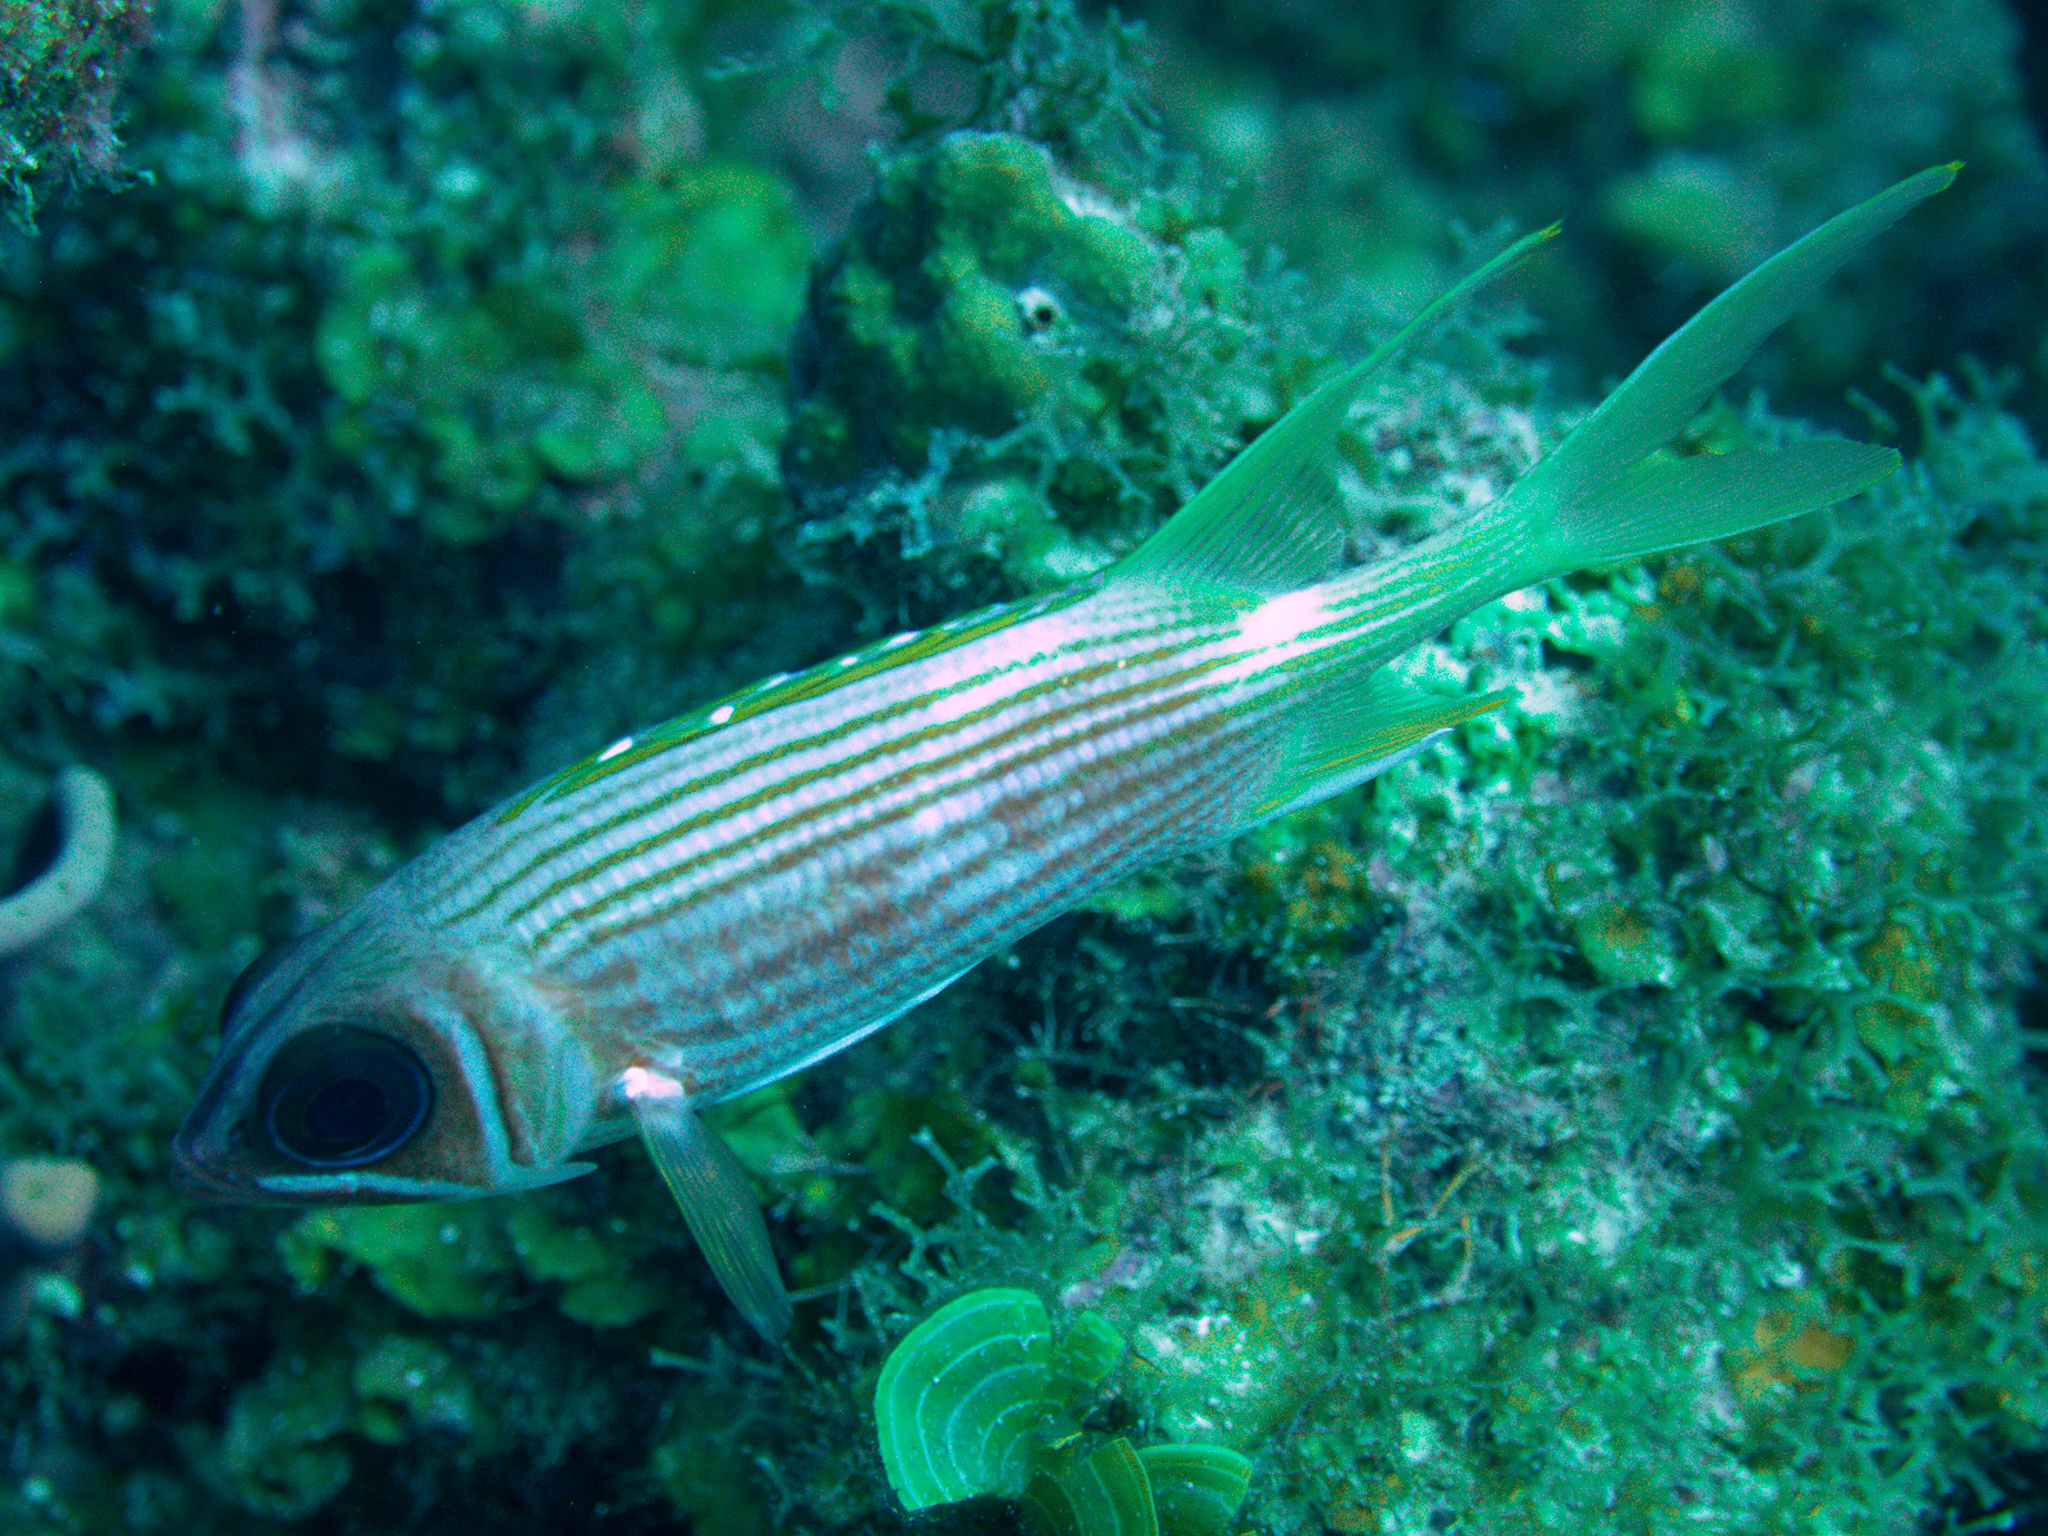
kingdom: Animalia
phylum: Chordata
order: Beryciformes
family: Holocentridae
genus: Holocentrus
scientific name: Holocentrus rufus
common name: Longspine squirrelfish
